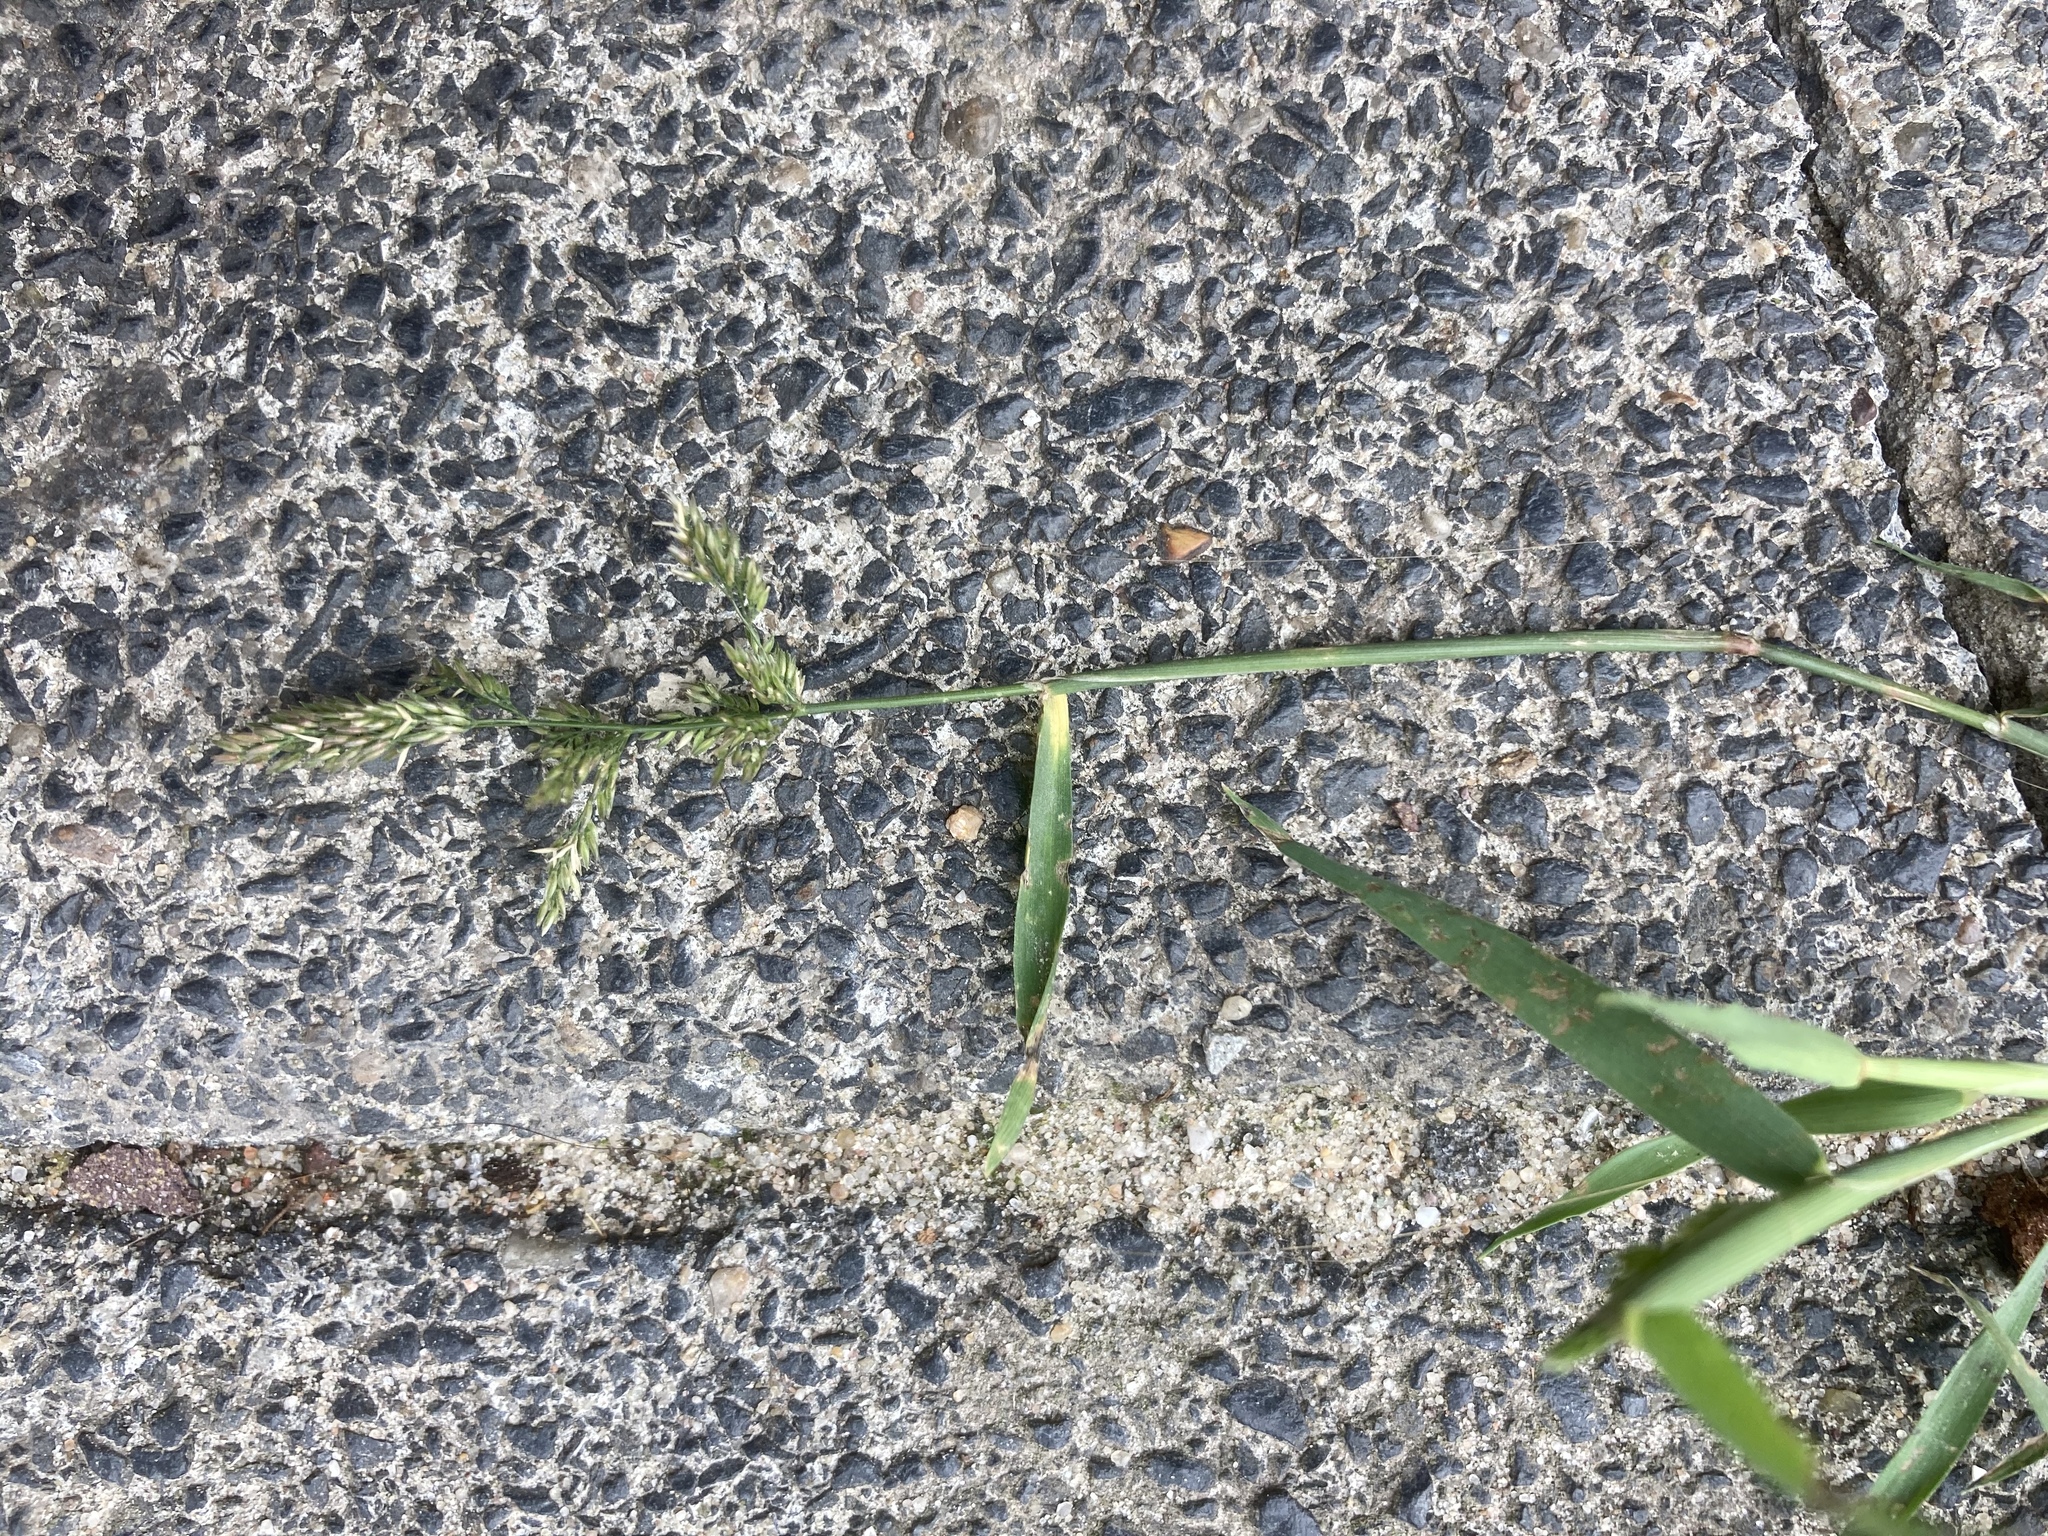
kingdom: Plantae
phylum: Tracheophyta
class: Liliopsida
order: Poales
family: Poaceae
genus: Polypogon
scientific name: Polypogon viridis
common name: Water bent
